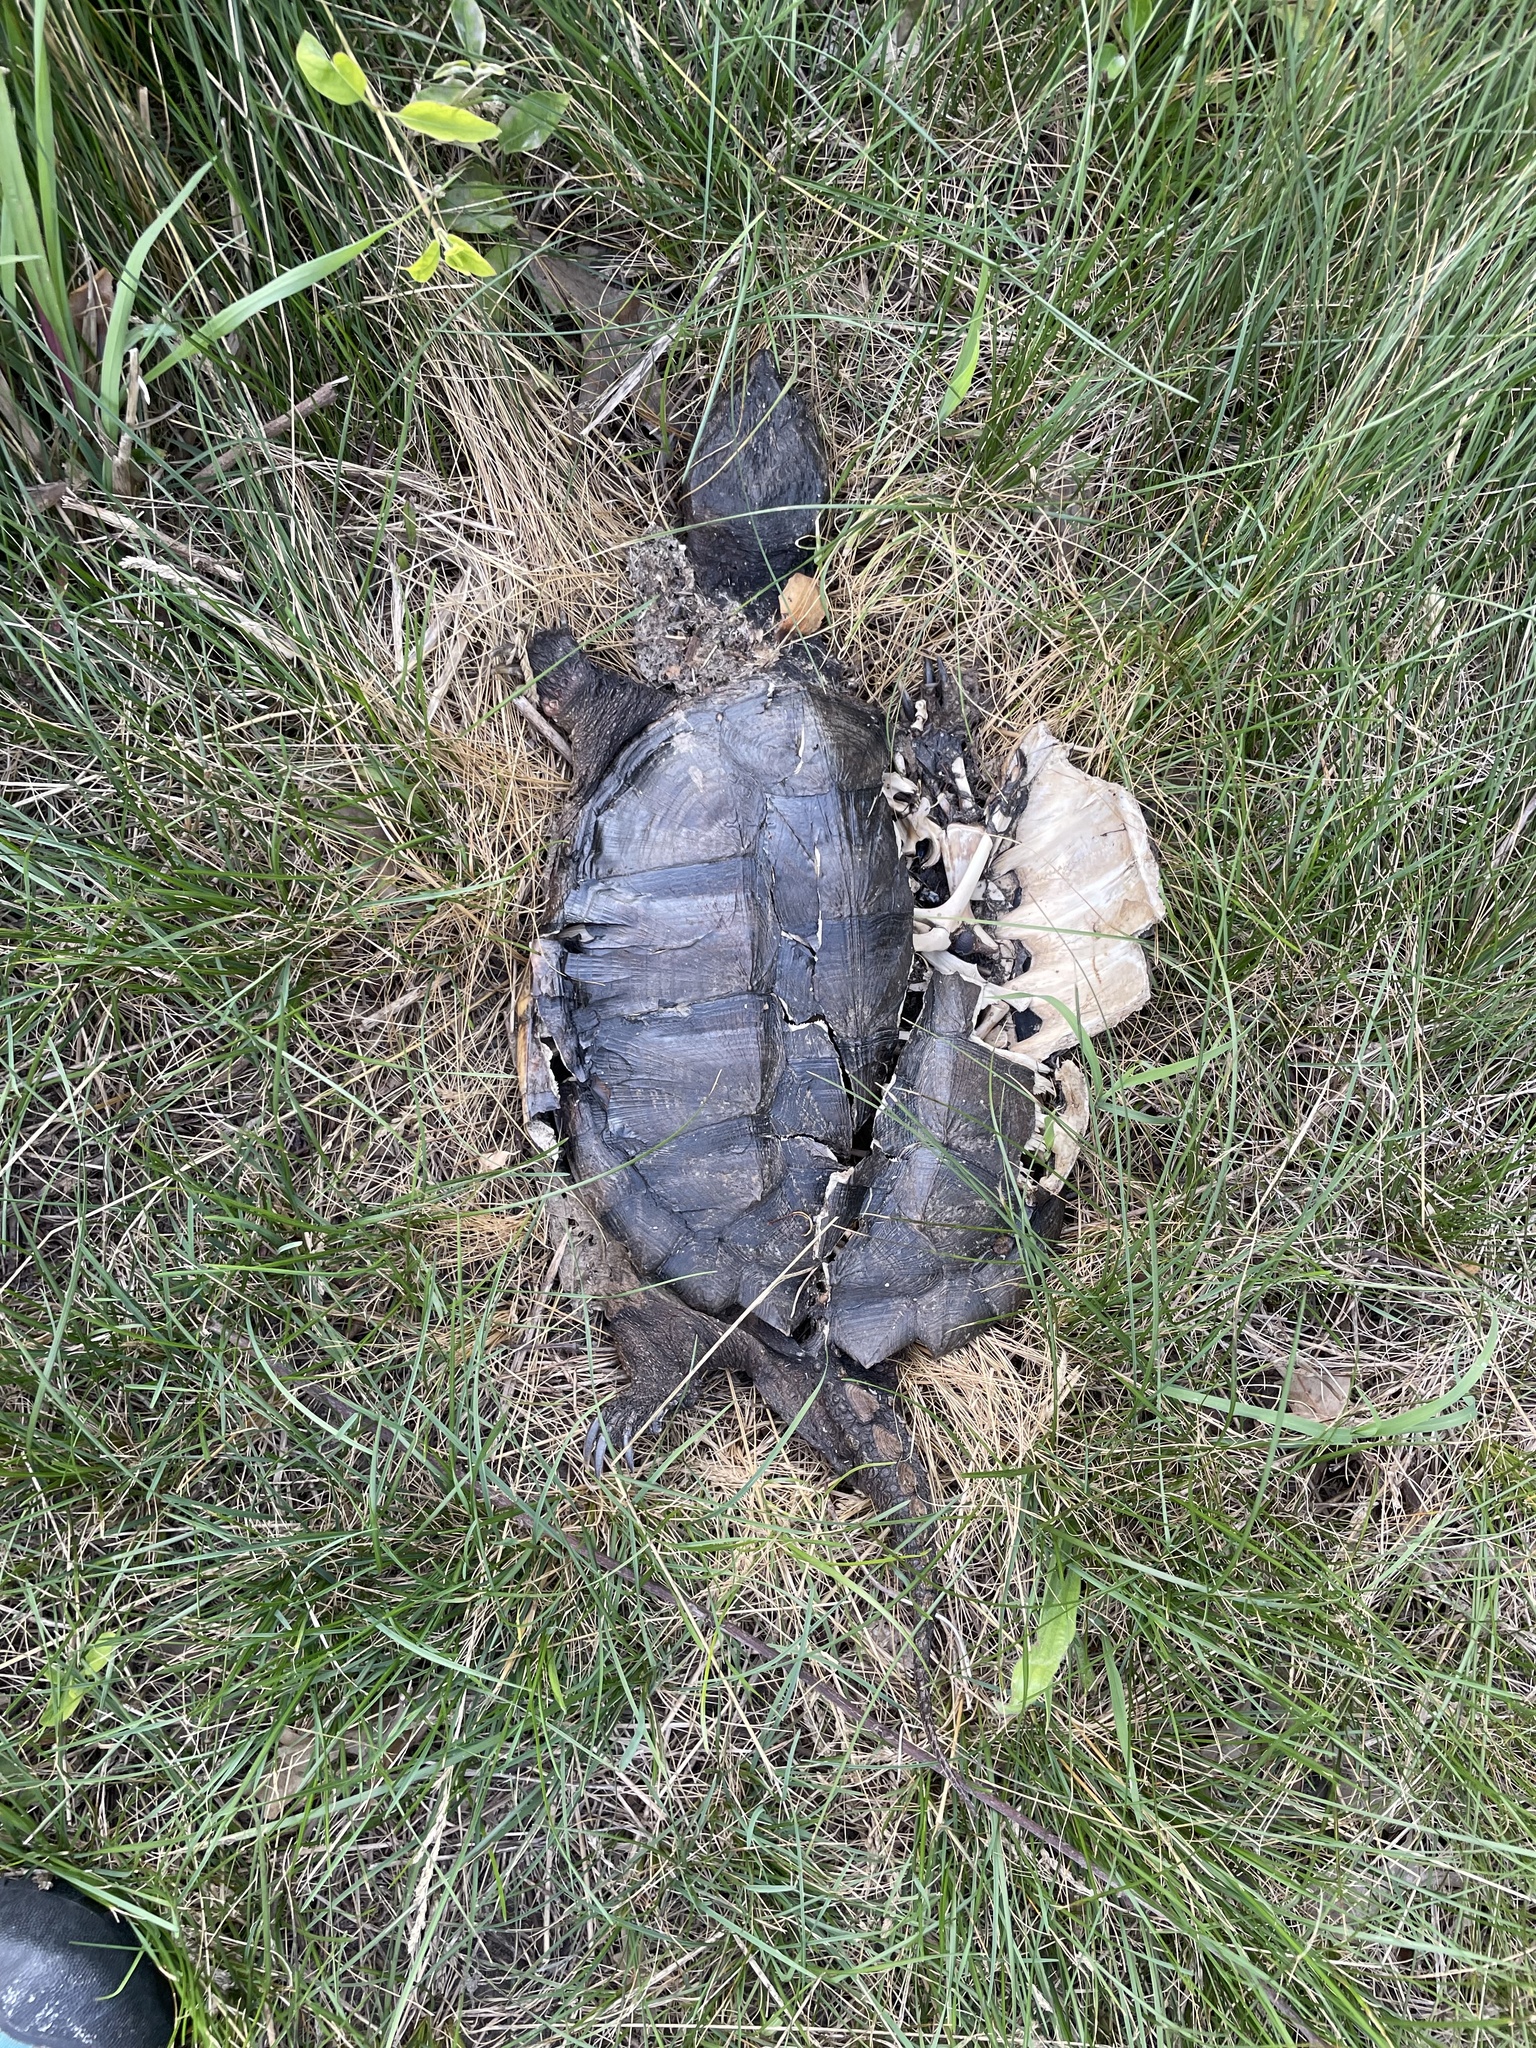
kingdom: Animalia
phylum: Chordata
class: Testudines
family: Chelydridae
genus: Chelydra
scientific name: Chelydra serpentina
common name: Common snapping turtle
